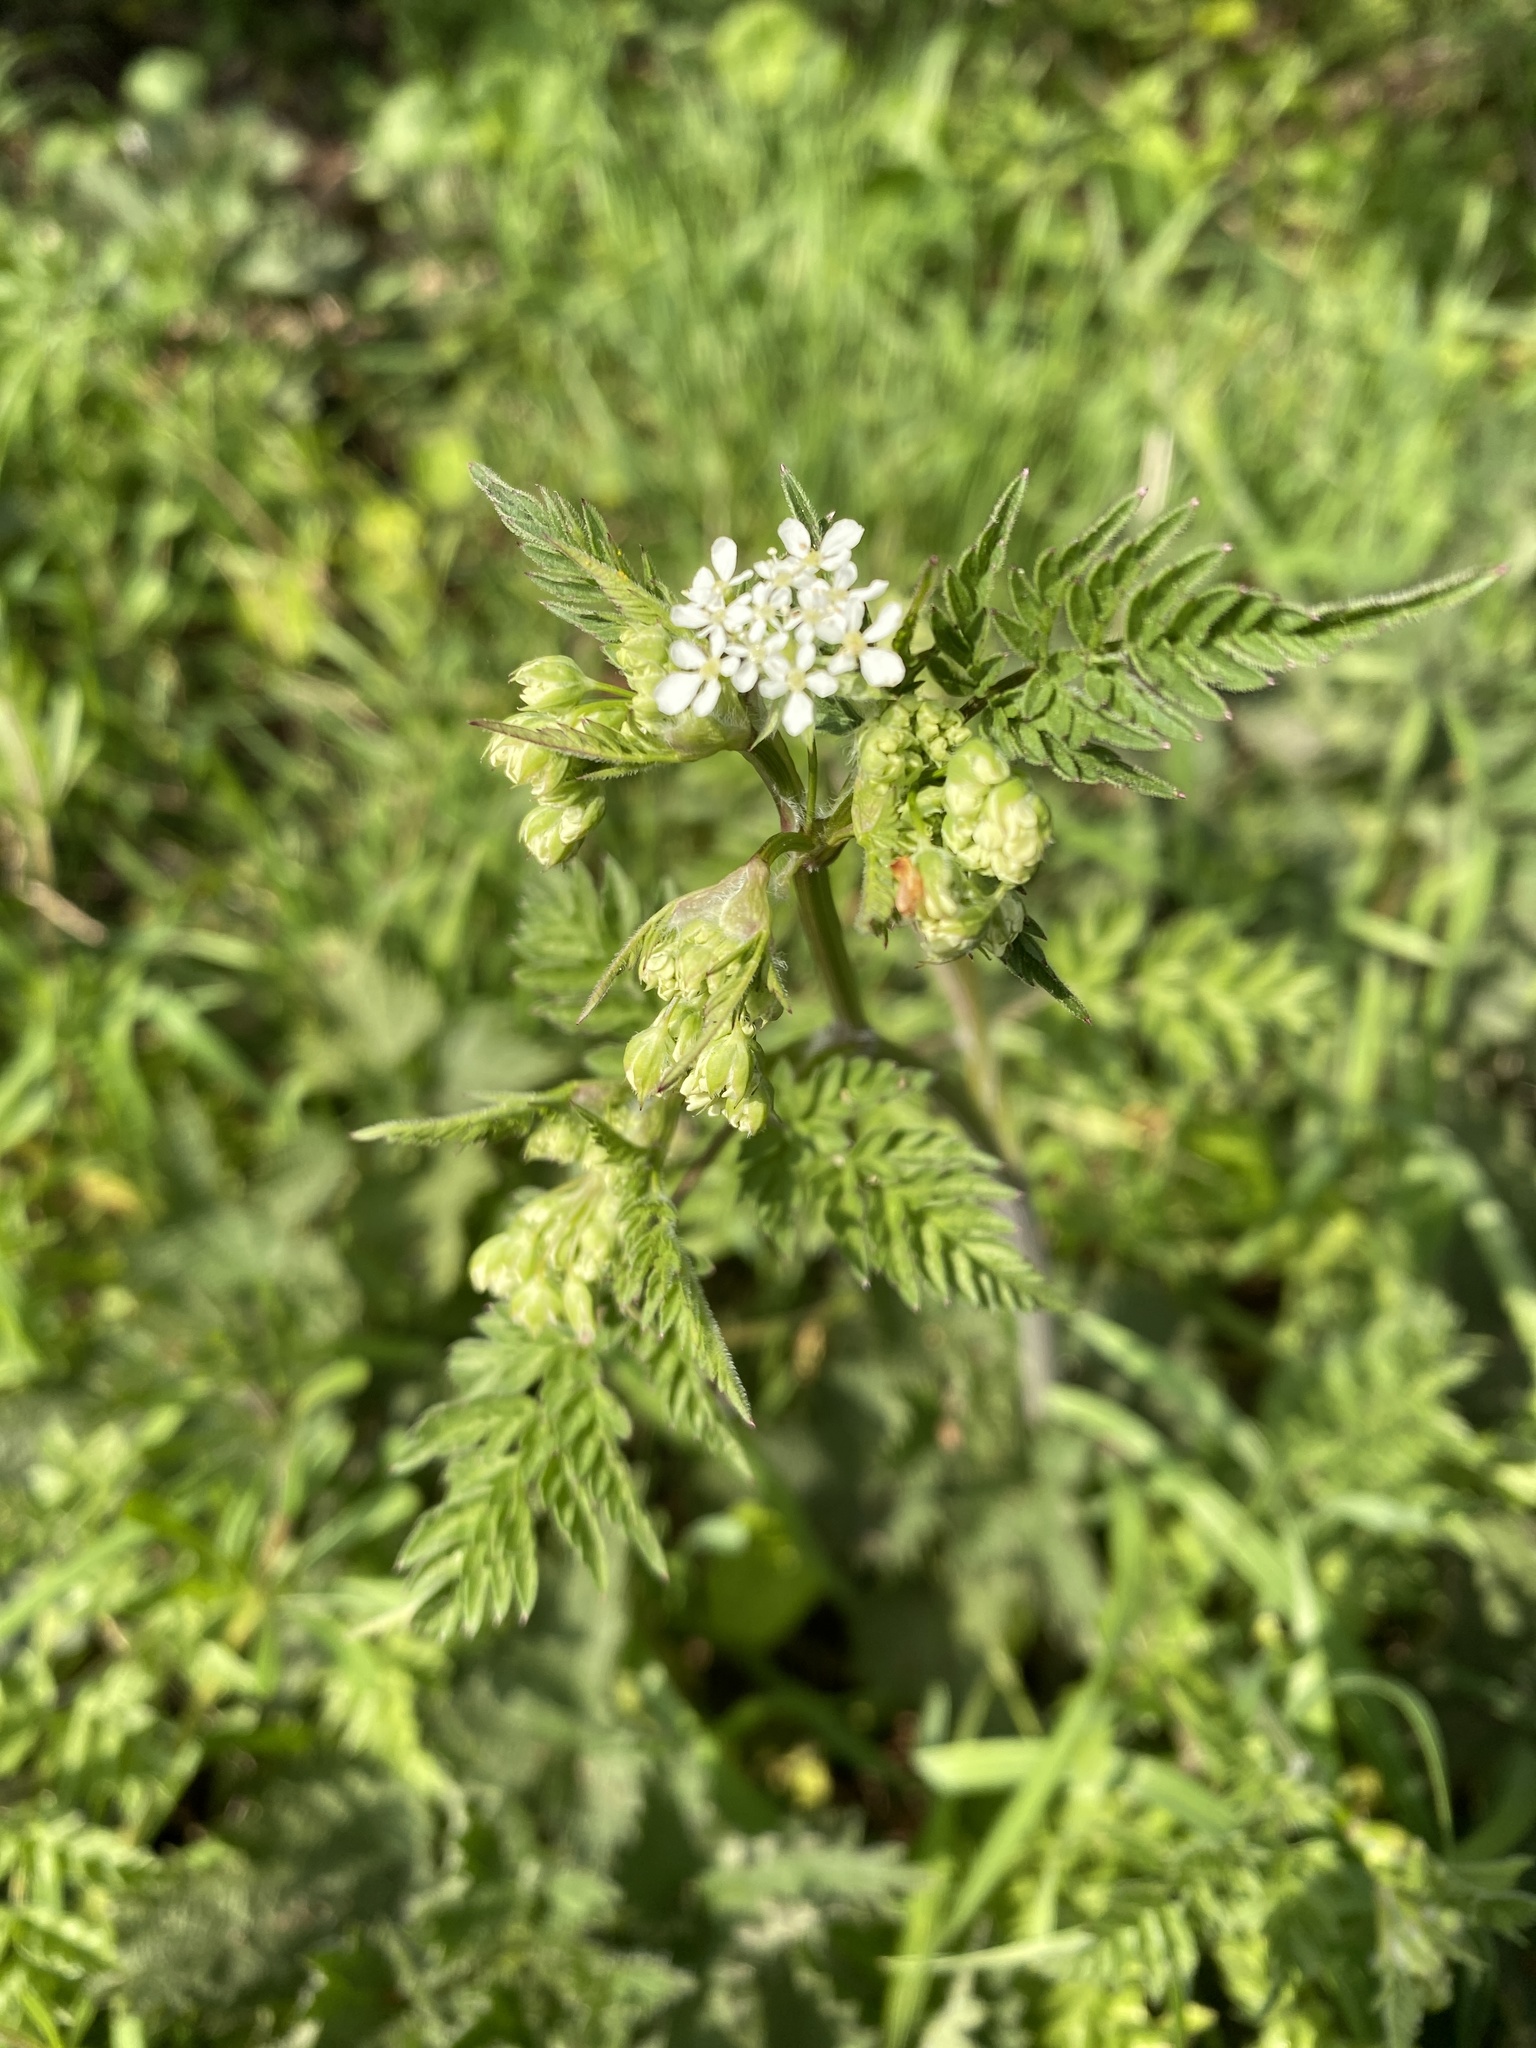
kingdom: Plantae
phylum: Tracheophyta
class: Magnoliopsida
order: Apiales
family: Apiaceae
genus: Anthriscus
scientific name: Anthriscus sylvestris
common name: Cow parsley
